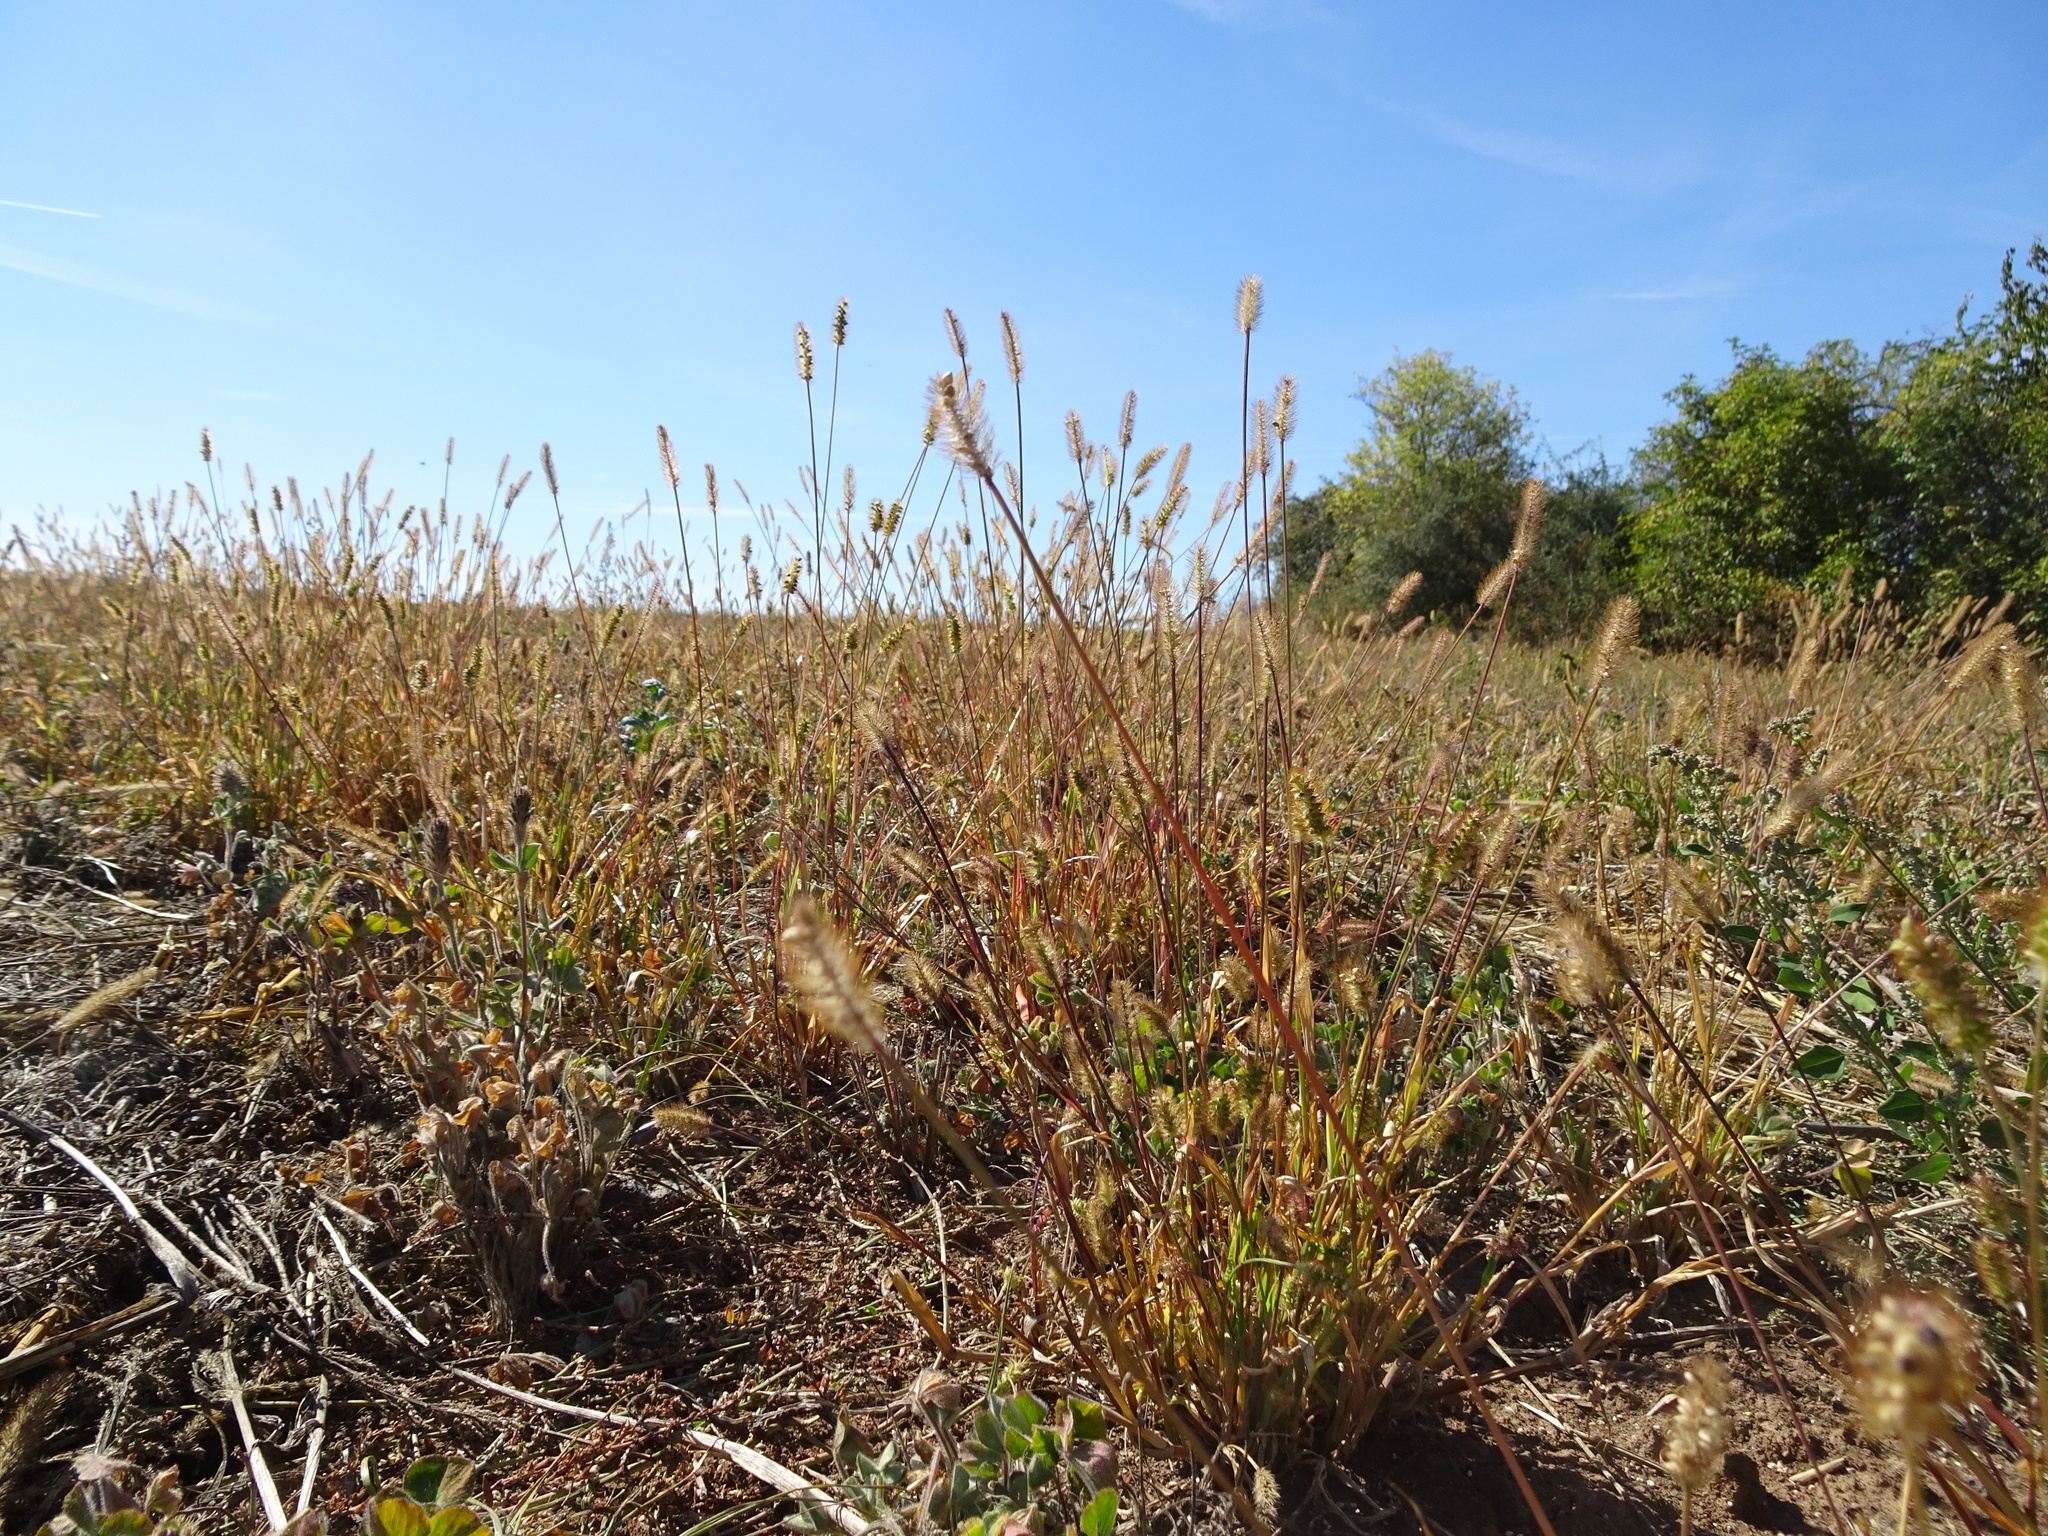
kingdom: Plantae
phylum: Tracheophyta
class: Liliopsida
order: Poales
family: Poaceae
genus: Setaria
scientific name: Setaria pumila
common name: Yellow bristle-grass
